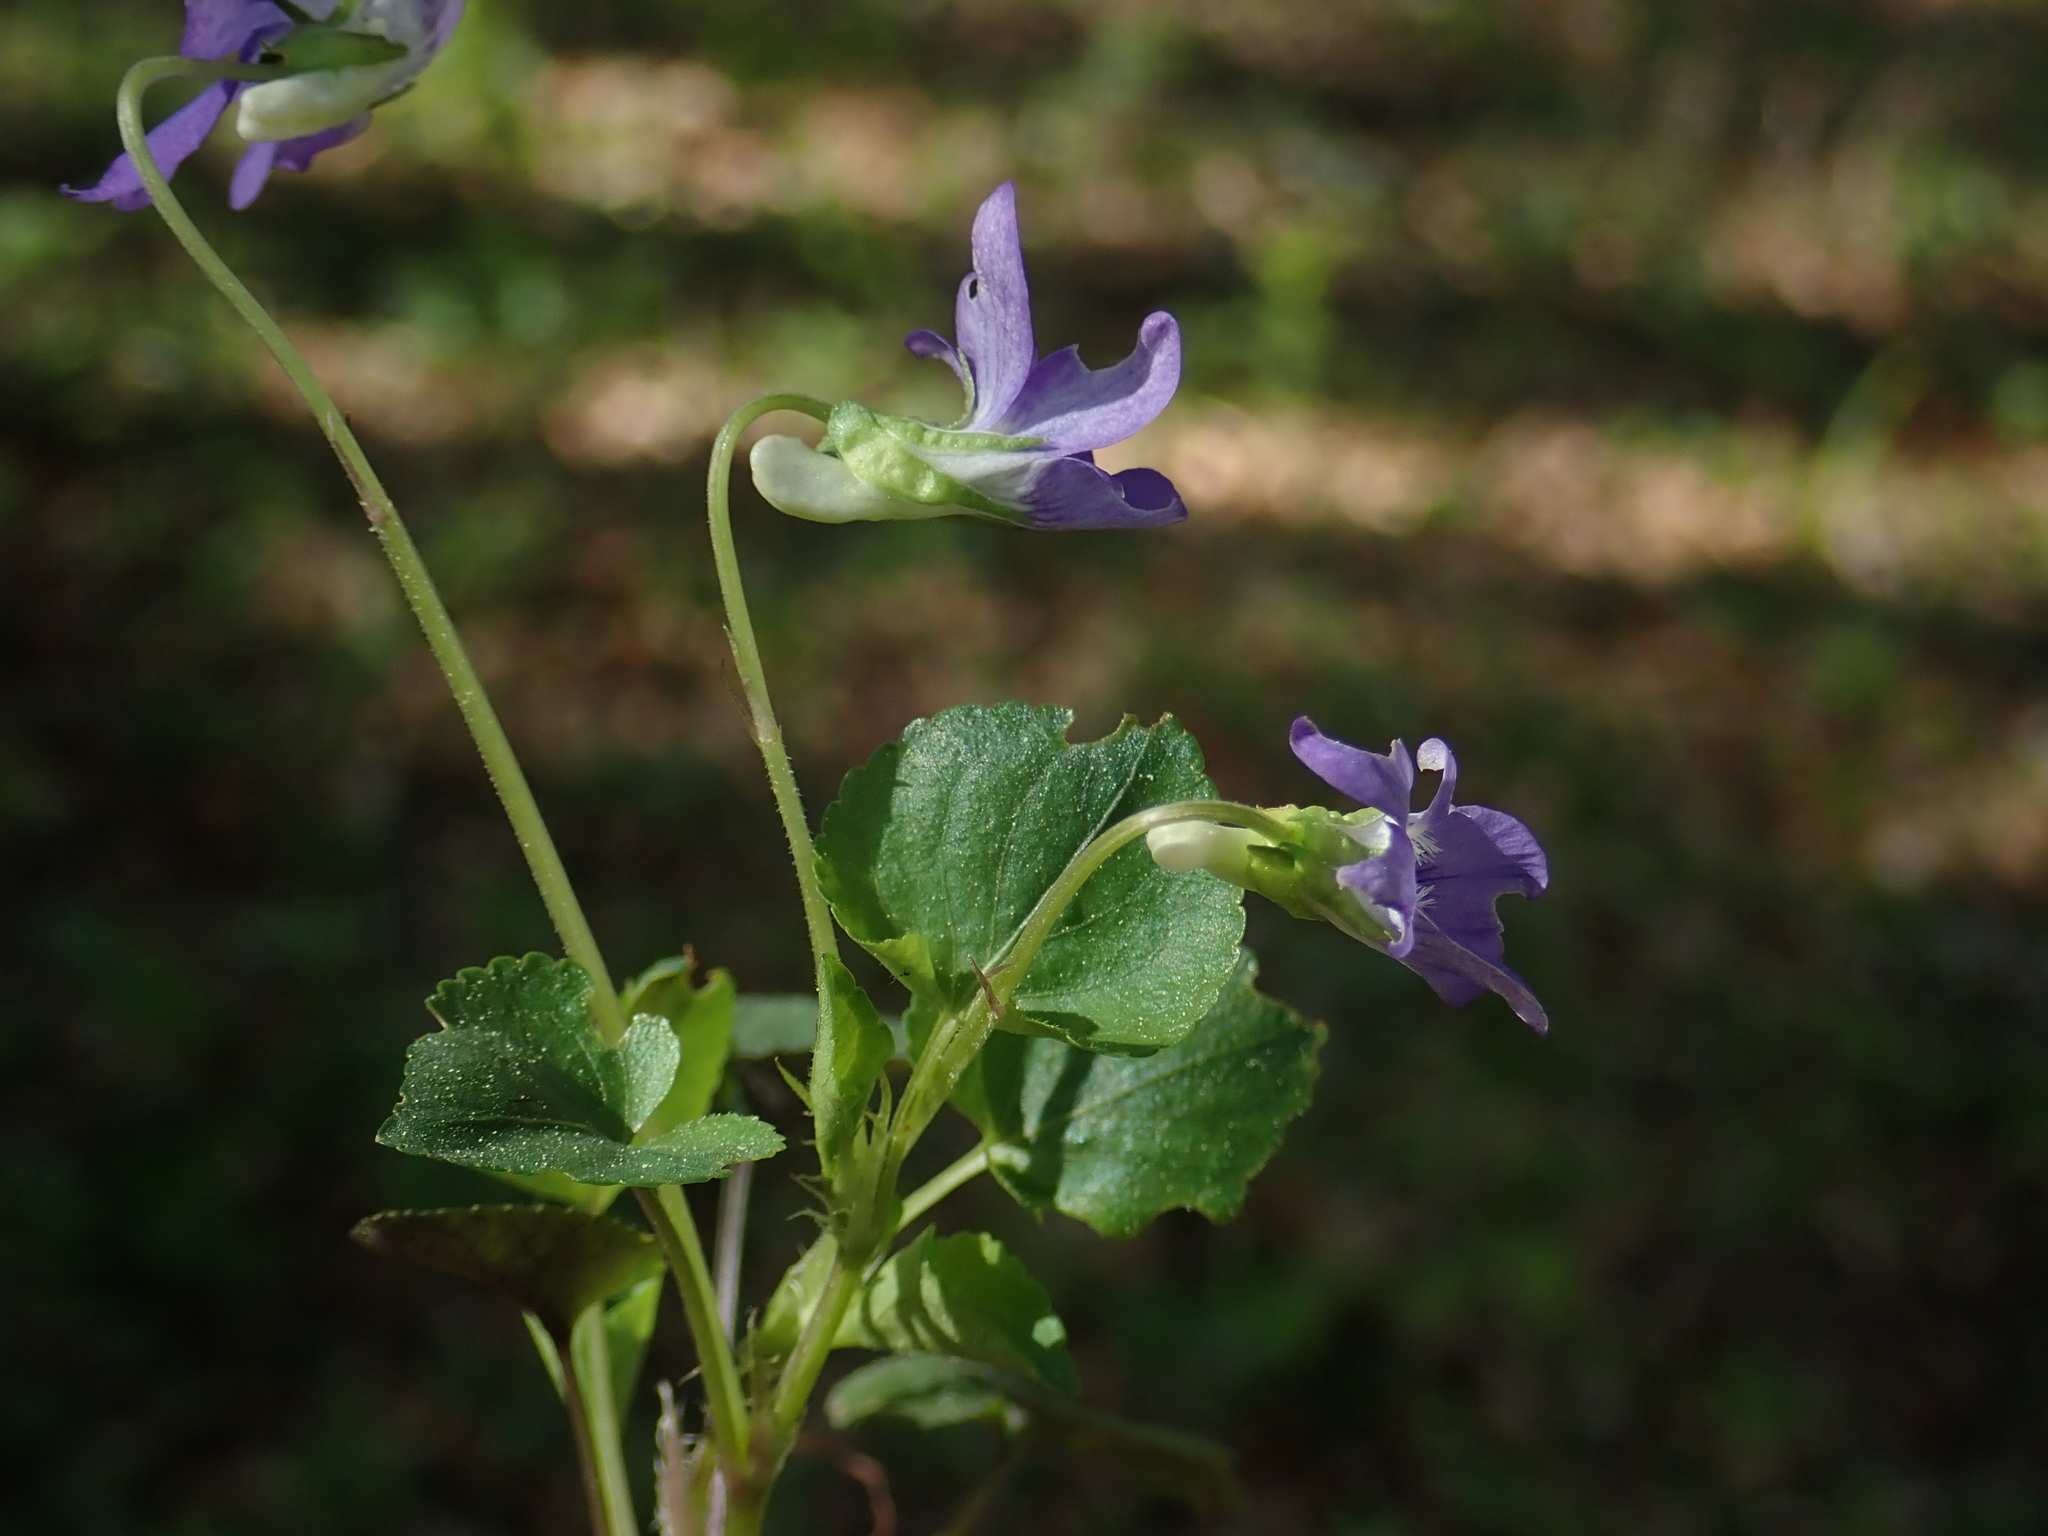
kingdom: Plantae
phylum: Tracheophyta
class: Magnoliopsida
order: Malpighiales
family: Violaceae
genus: Viola
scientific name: Viola riviniana
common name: Common dog-violet
